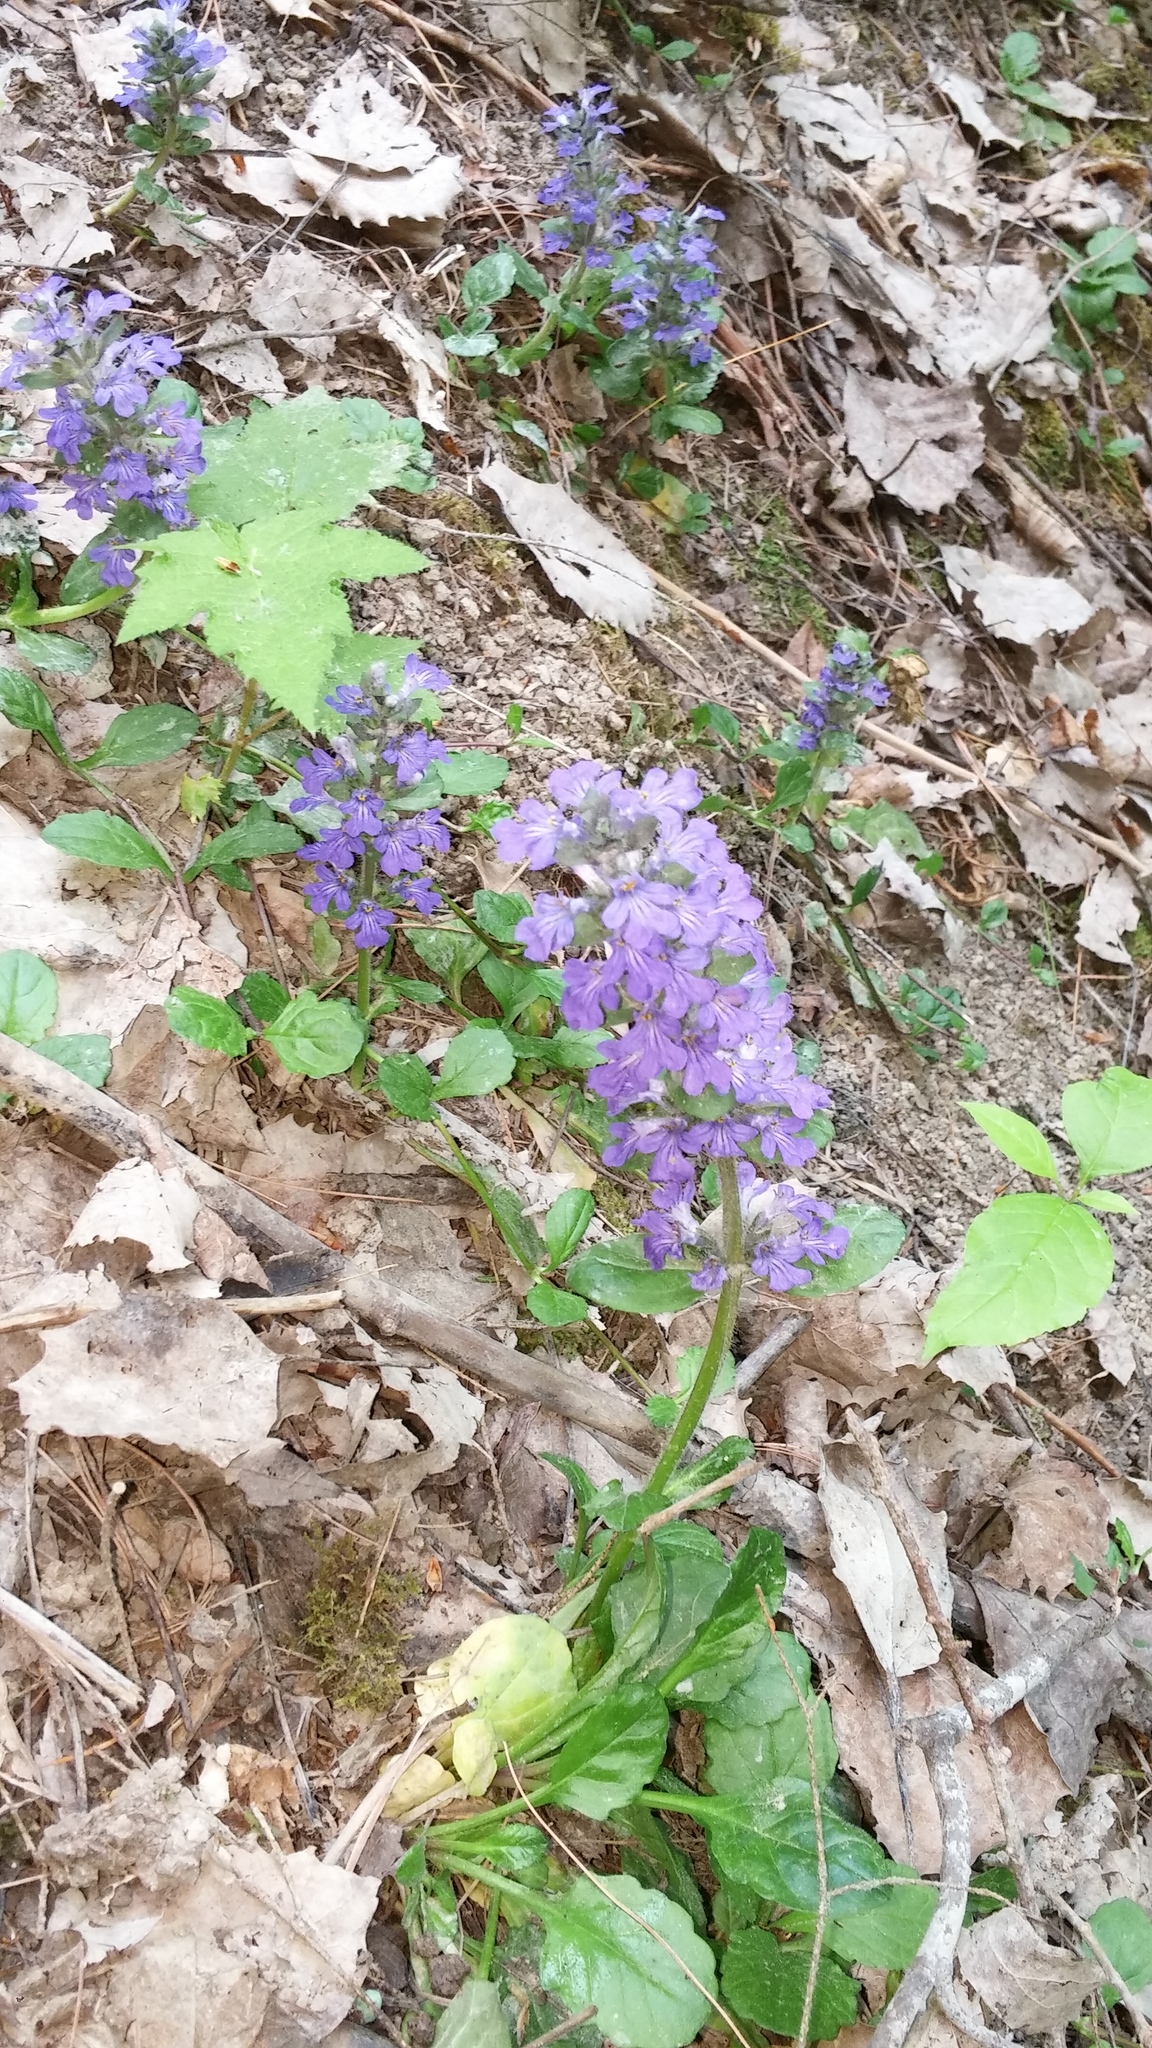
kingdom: Plantae
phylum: Tracheophyta
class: Magnoliopsida
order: Lamiales
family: Lamiaceae
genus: Ajuga
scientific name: Ajuga reptans
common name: Bugle
